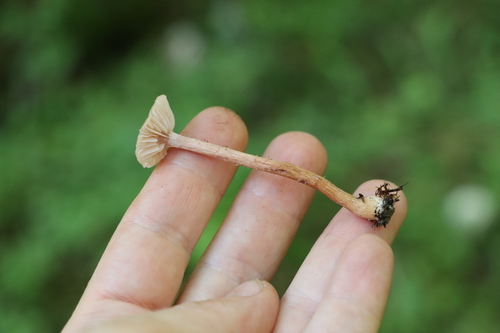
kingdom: Fungi
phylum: Basidiomycota
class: Agaricomycetes
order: Agaricales
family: Hydnangiaceae
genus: Laccaria
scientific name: Laccaria proxima
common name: Scurfy deceiver
